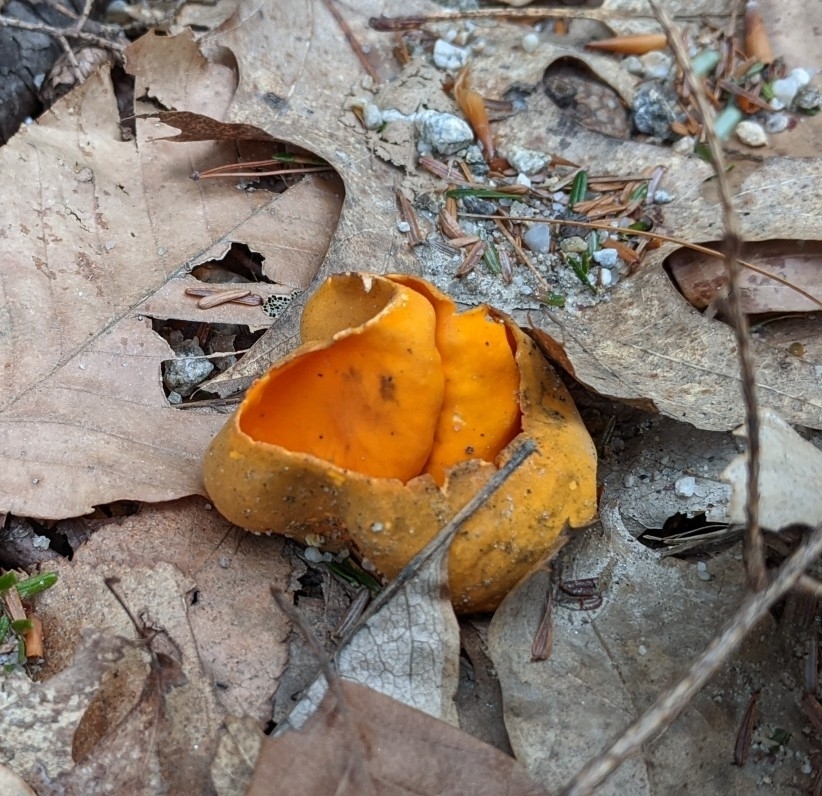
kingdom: Fungi
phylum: Ascomycota
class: Pezizomycetes
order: Pezizales
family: Caloscyphaceae
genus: Caloscypha
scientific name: Caloscypha fulgens
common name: Golden cup
